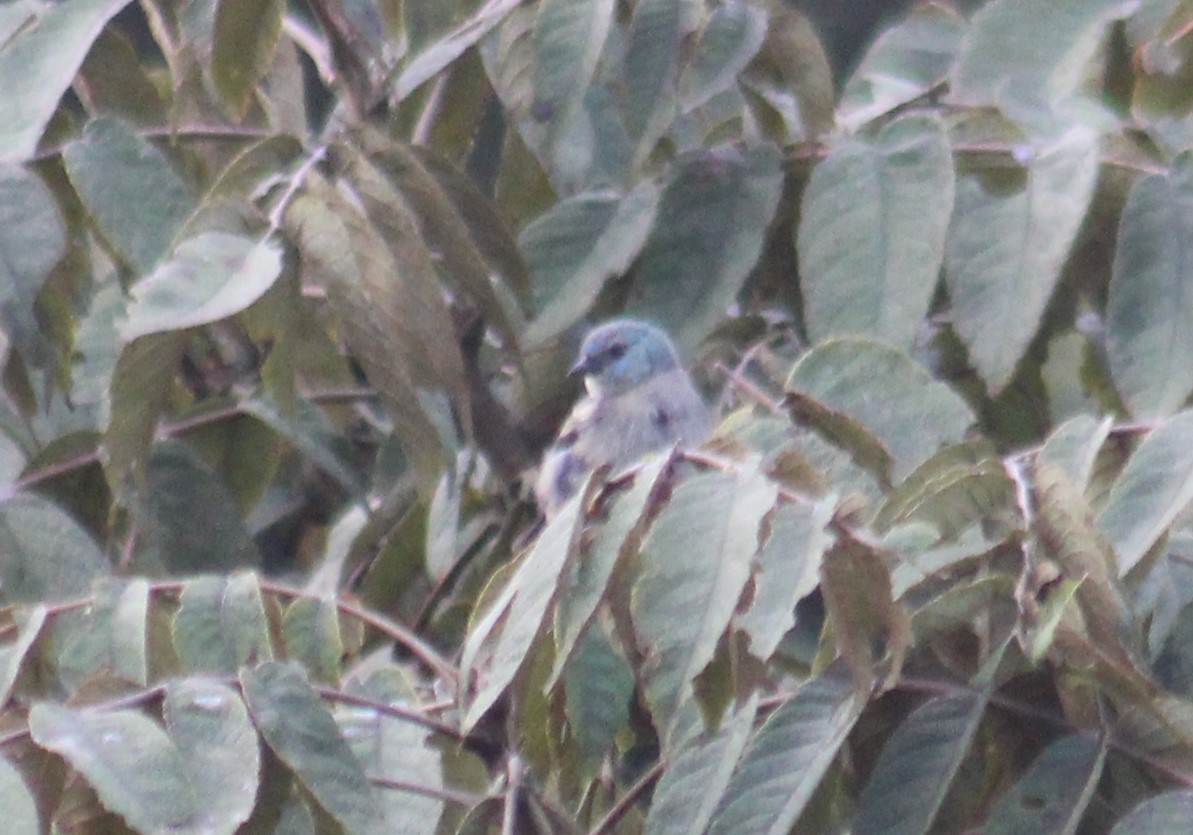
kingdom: Animalia
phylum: Chordata
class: Aves
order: Passeriformes
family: Thraupidae
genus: Stilpnia
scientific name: Stilpnia cyanicollis
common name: Blue-necked tanager
